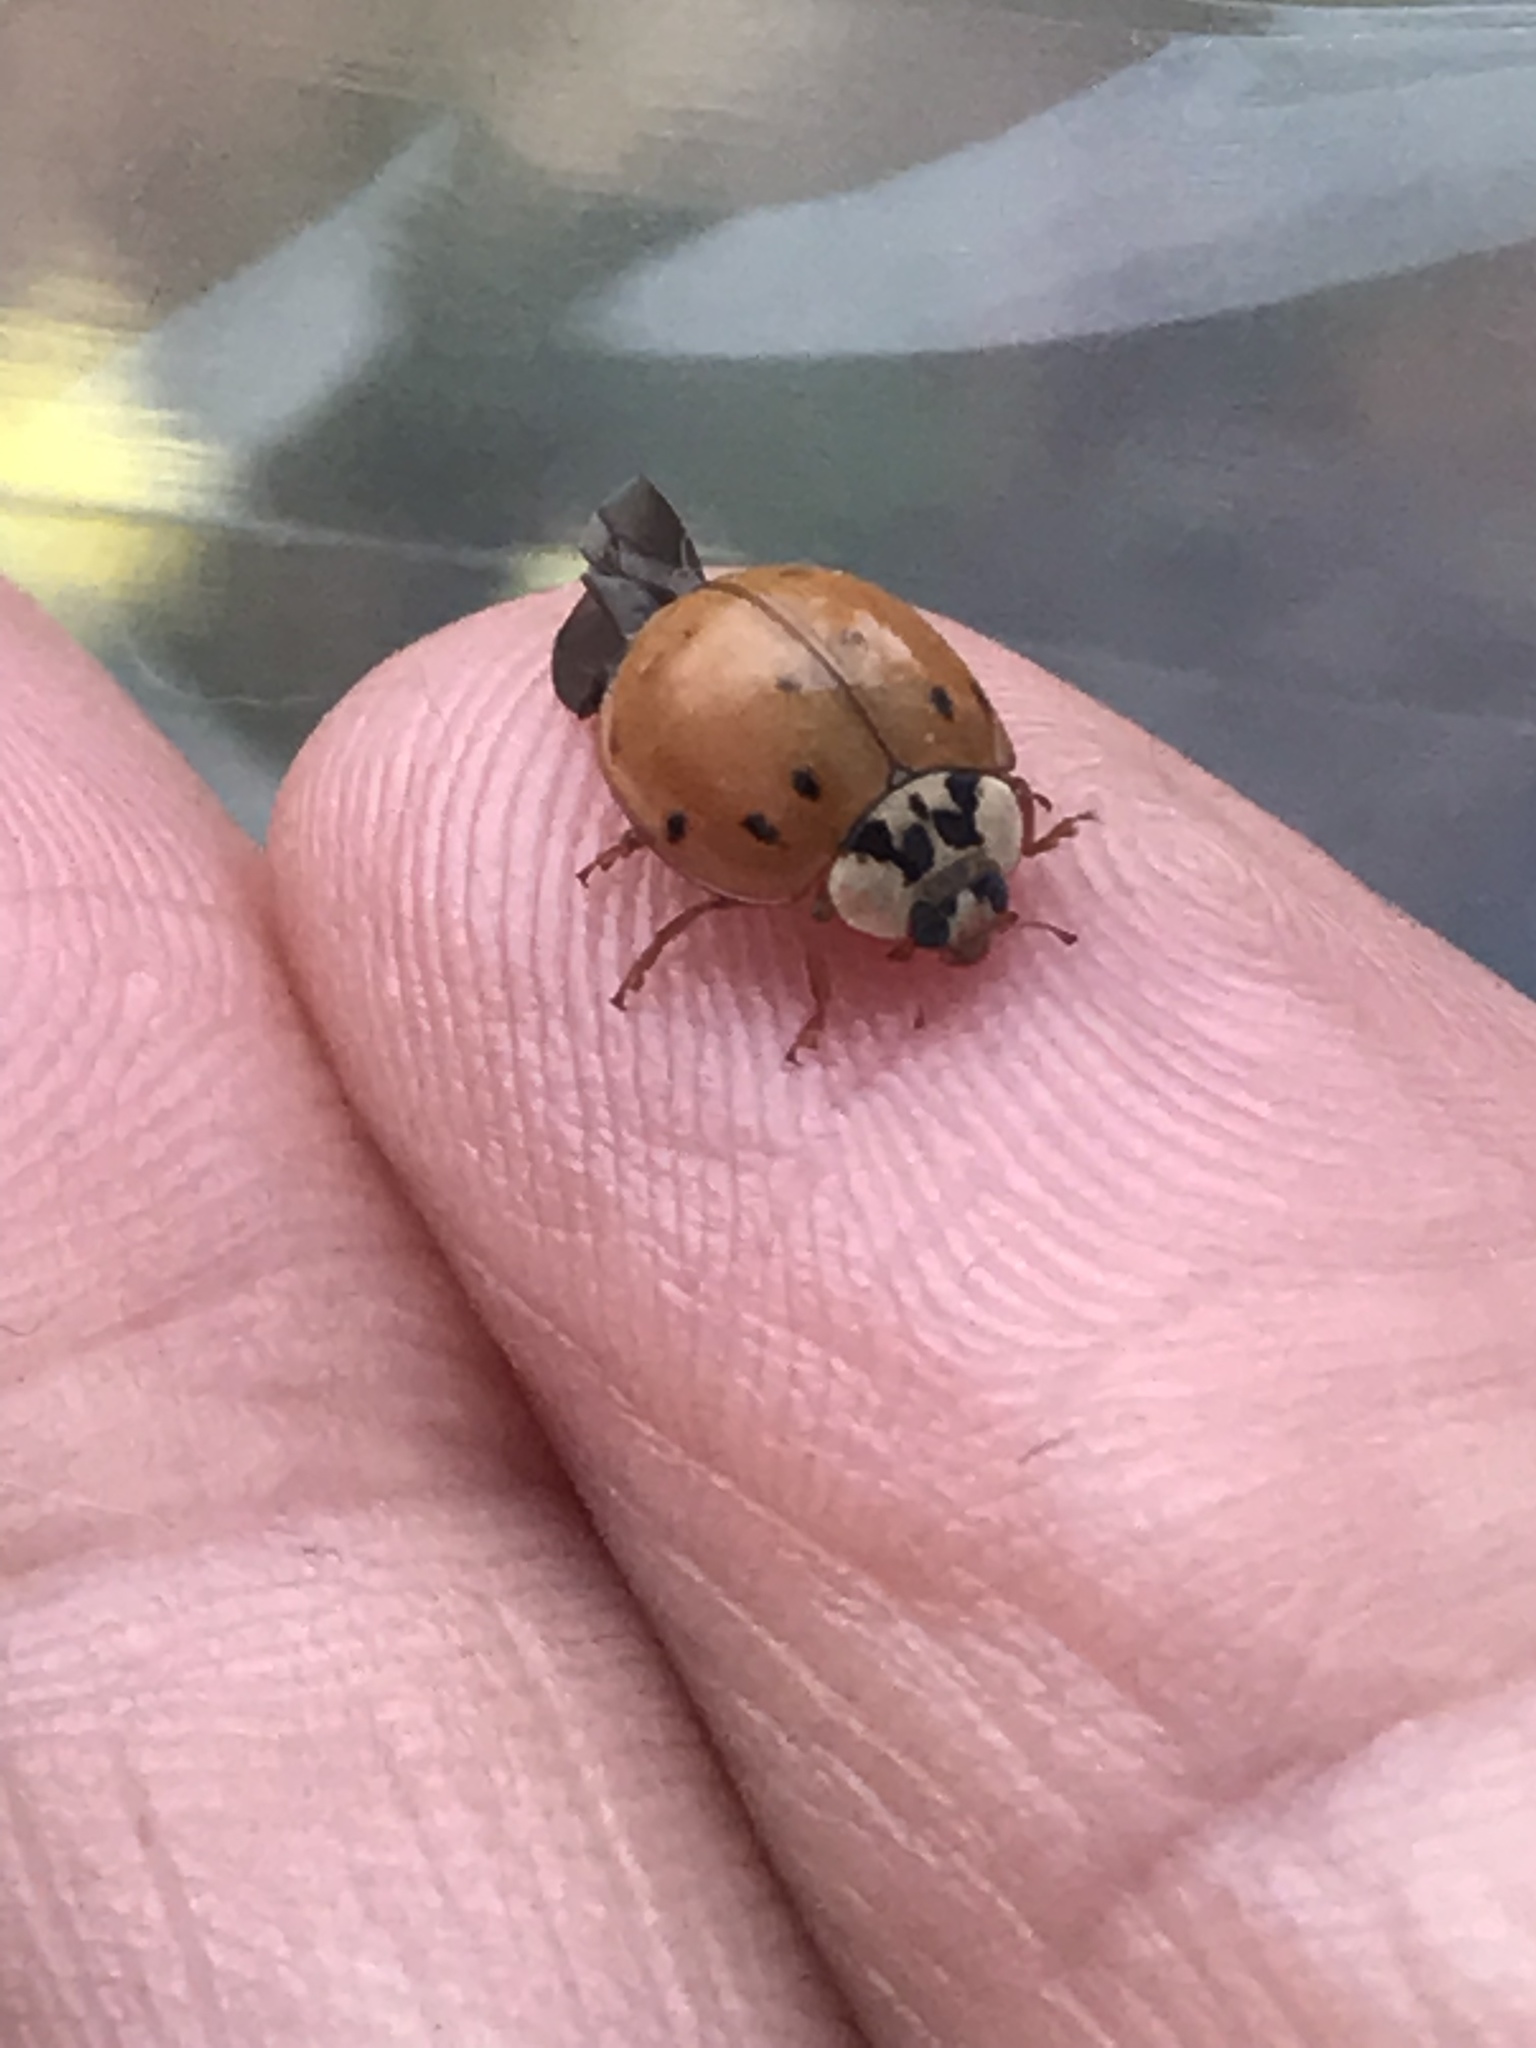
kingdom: Animalia
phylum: Arthropoda
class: Insecta
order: Coleoptera
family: Coccinellidae
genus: Harmonia
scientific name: Harmonia axyridis
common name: Harlequin ladybird
